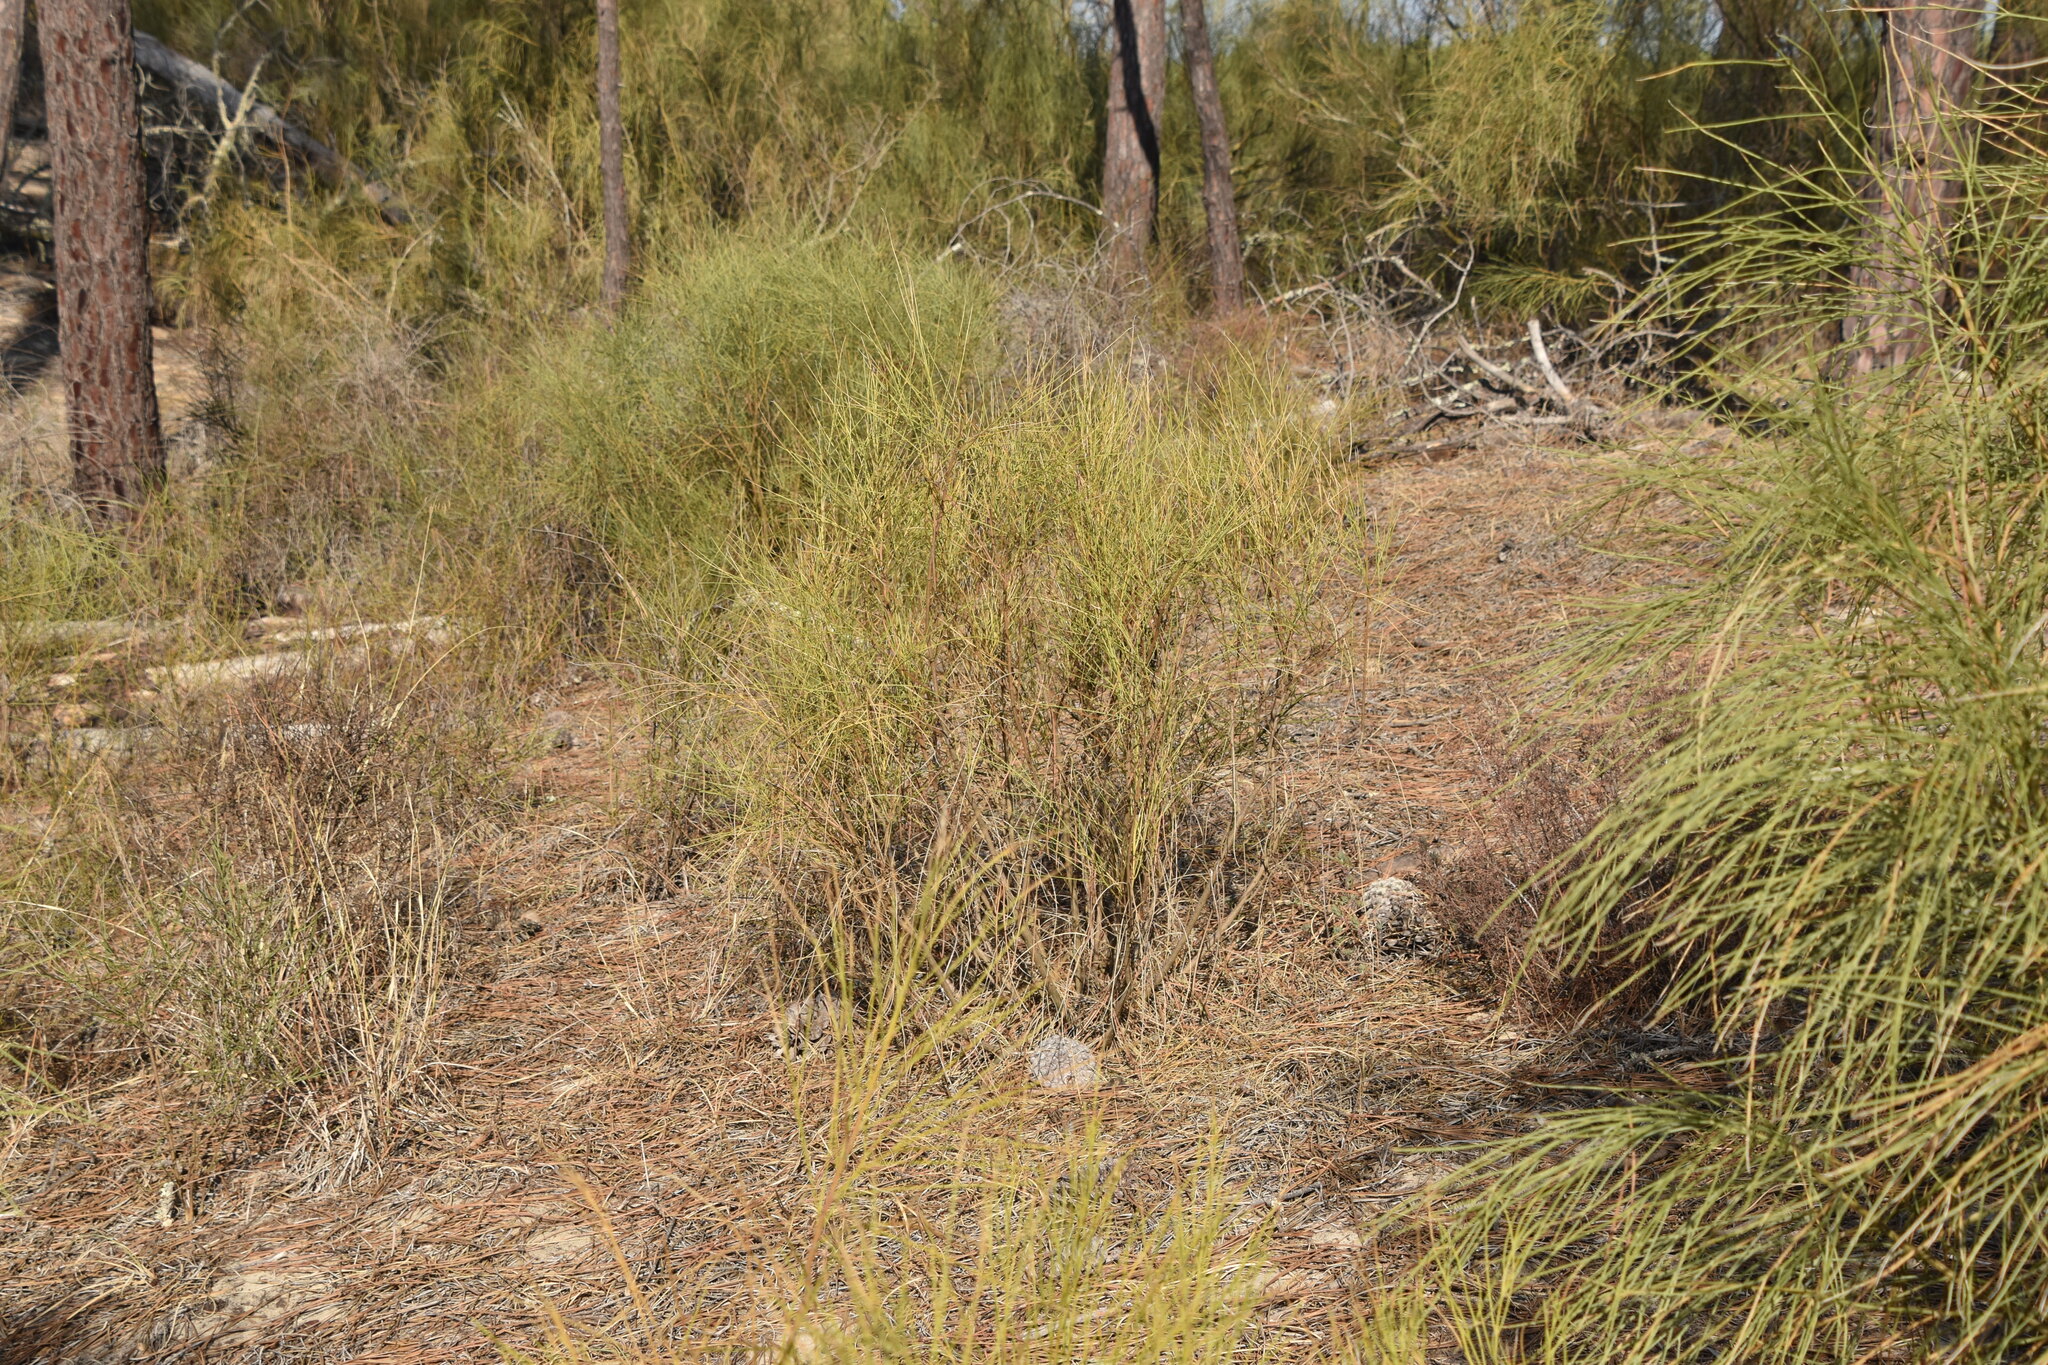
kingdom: Plantae
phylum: Tracheophyta
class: Magnoliopsida
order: Fabales
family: Fabaceae
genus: Retama
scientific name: Retama monosperma
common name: Bridal broom
